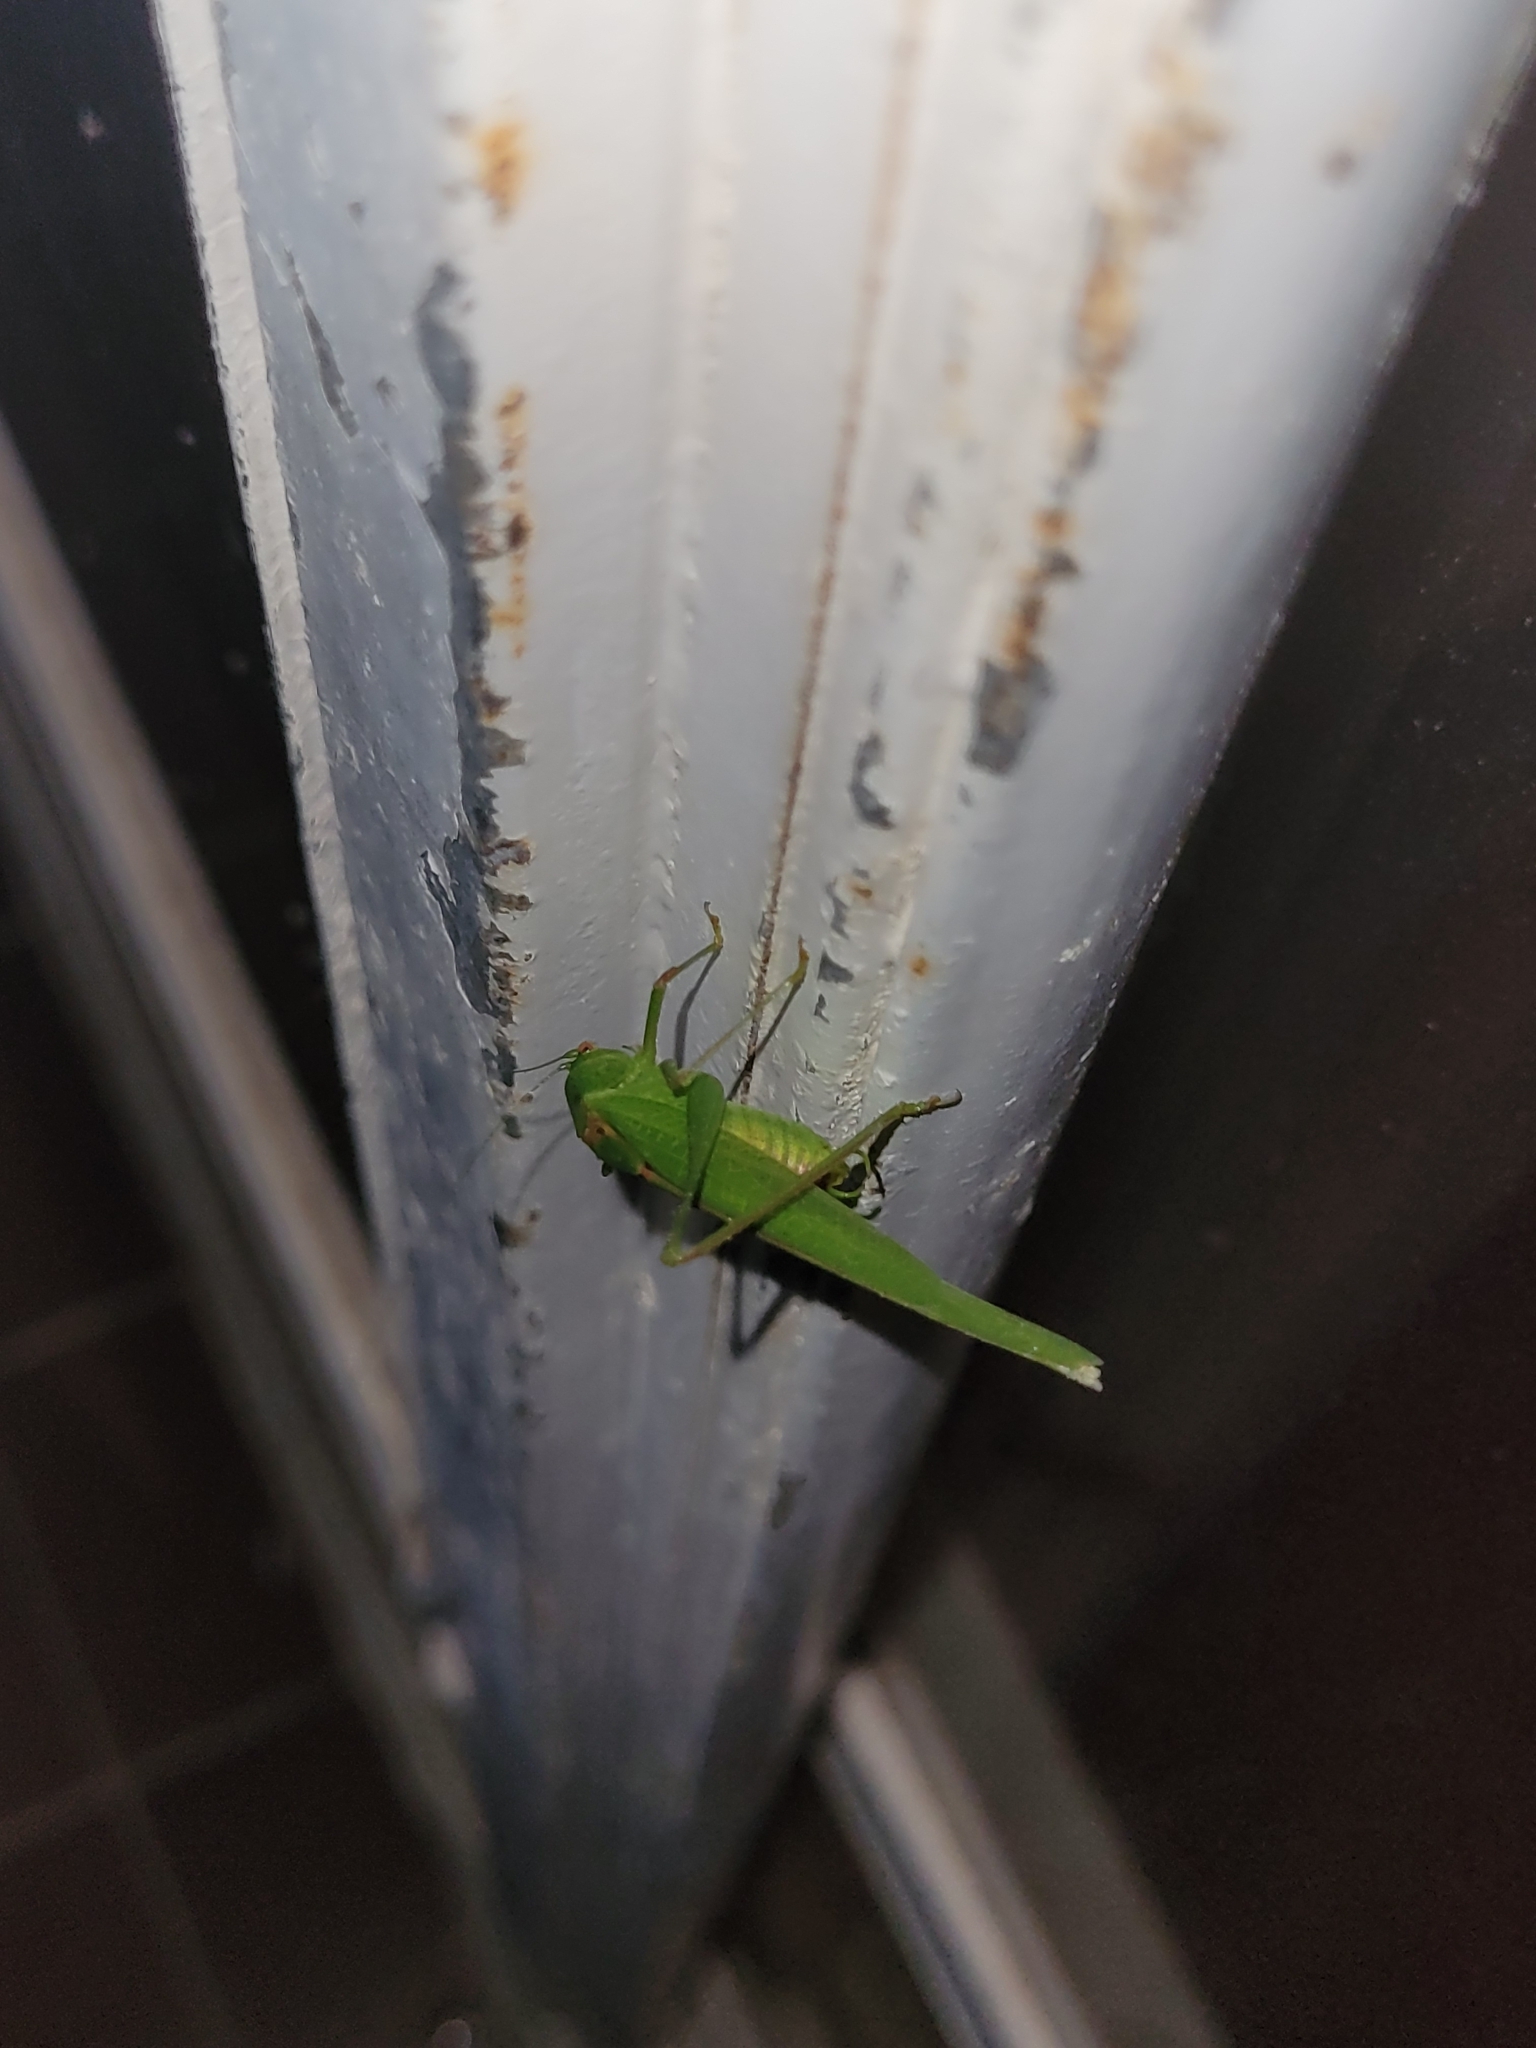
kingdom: Animalia
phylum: Arthropoda
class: Insecta
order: Orthoptera
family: Tettigoniidae
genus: Phaneroptera
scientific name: Phaneroptera nana
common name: Southern sickle bush-cricket
